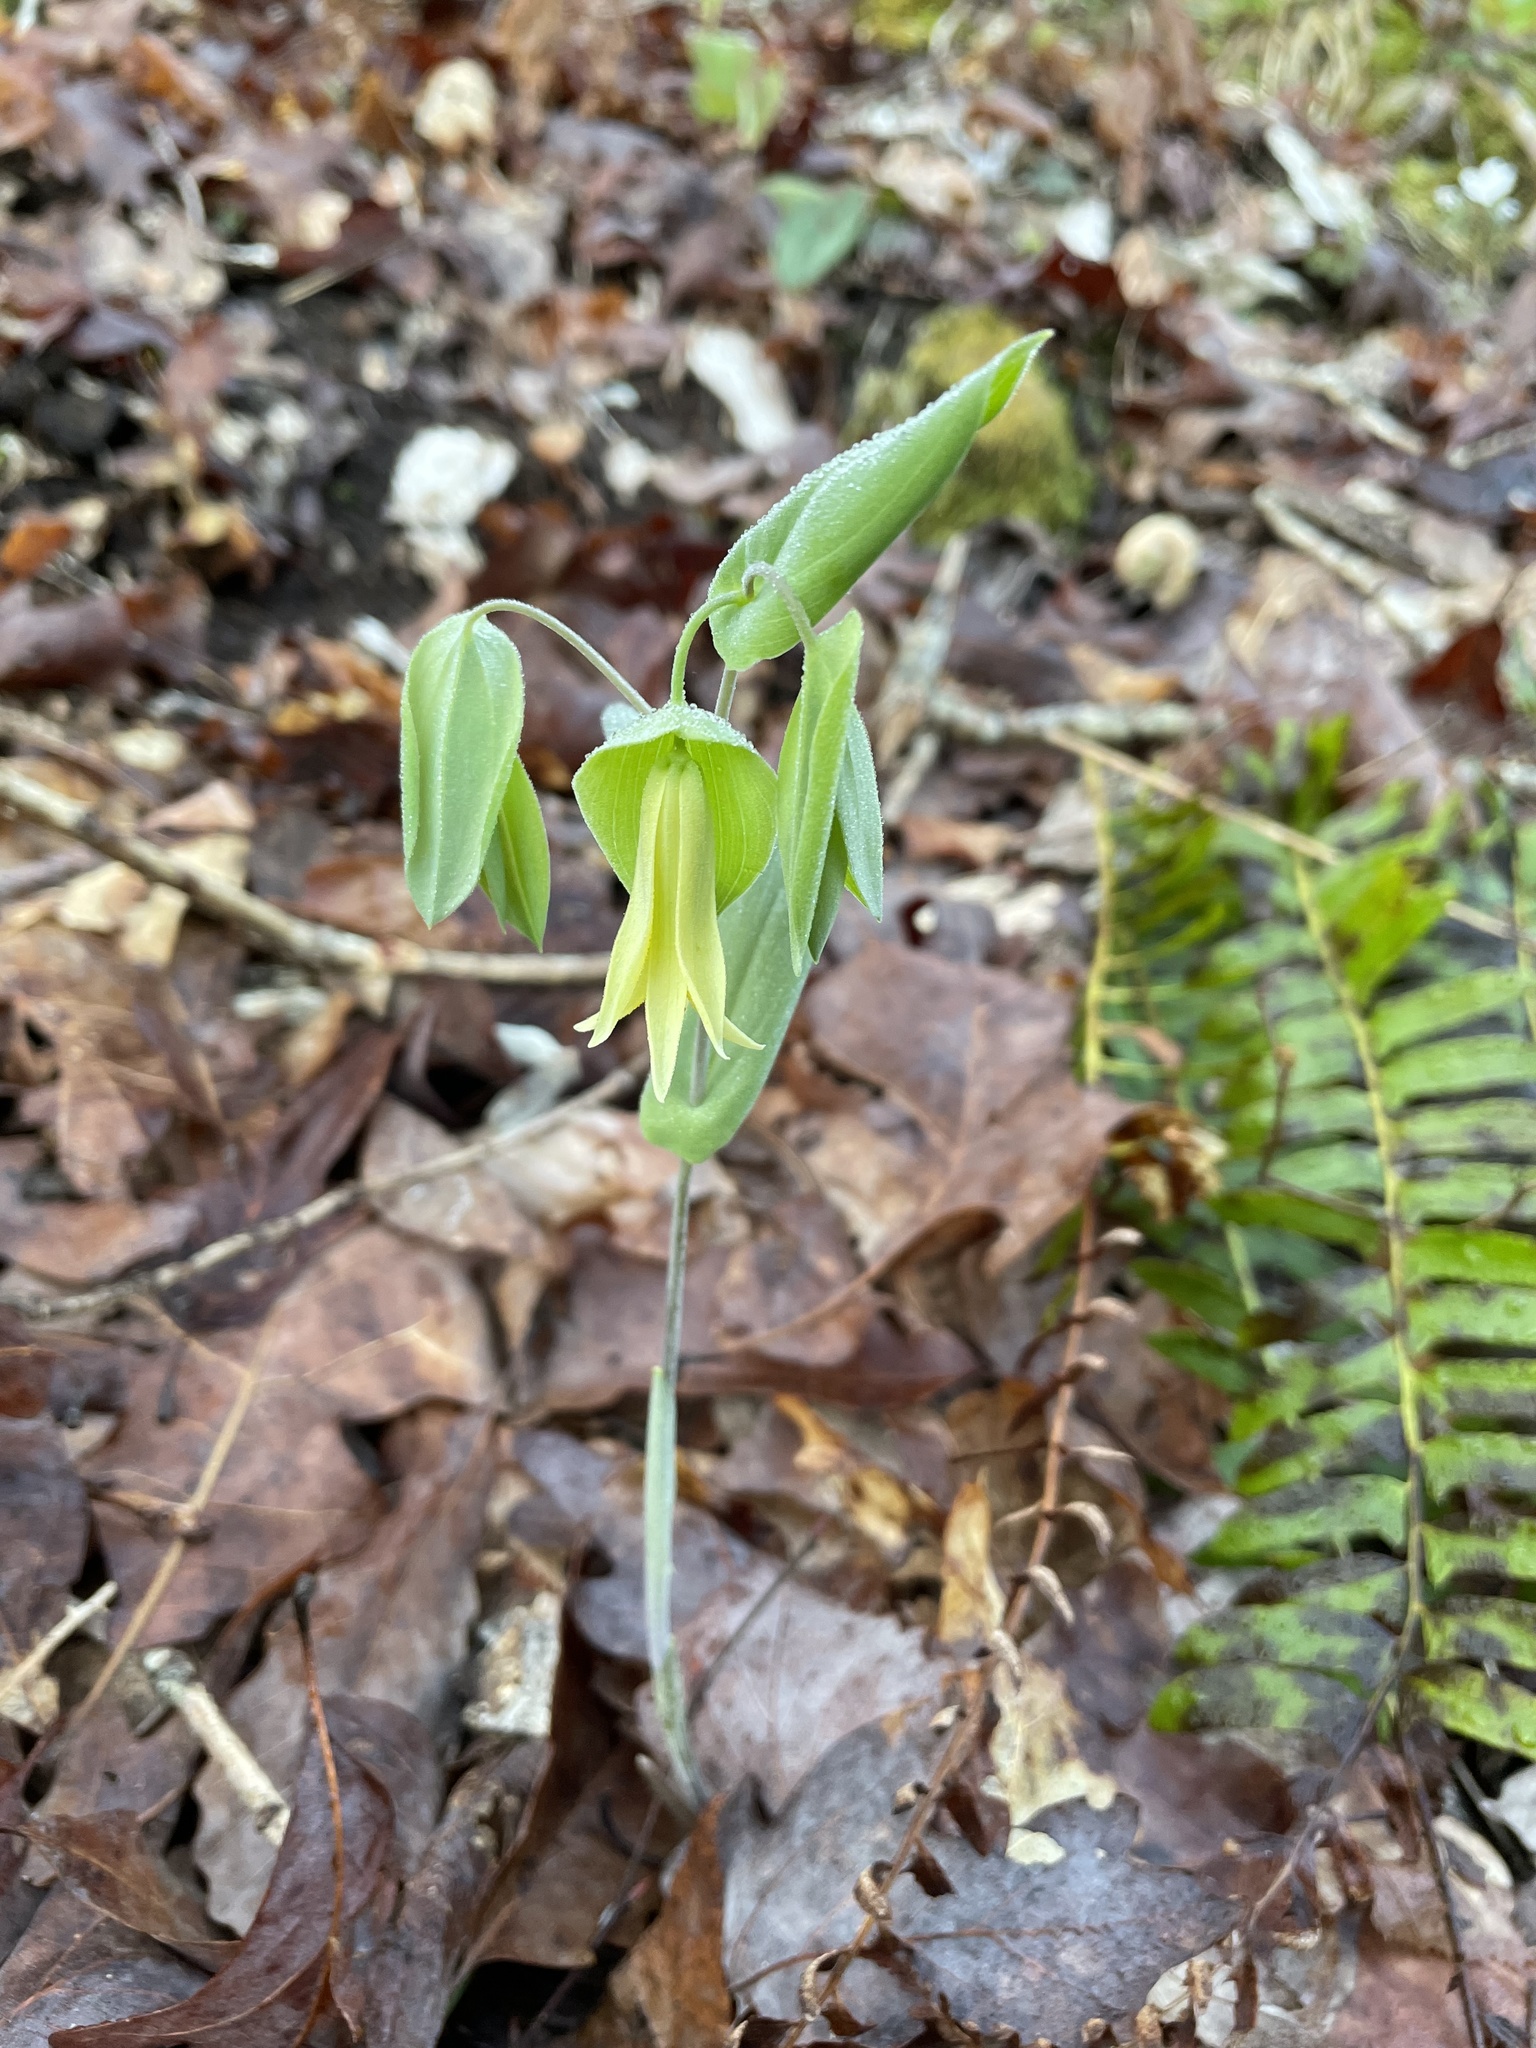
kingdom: Plantae
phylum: Tracheophyta
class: Liliopsida
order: Liliales
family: Colchicaceae
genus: Uvularia
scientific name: Uvularia perfoliata
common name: Perfoliate bellwort
